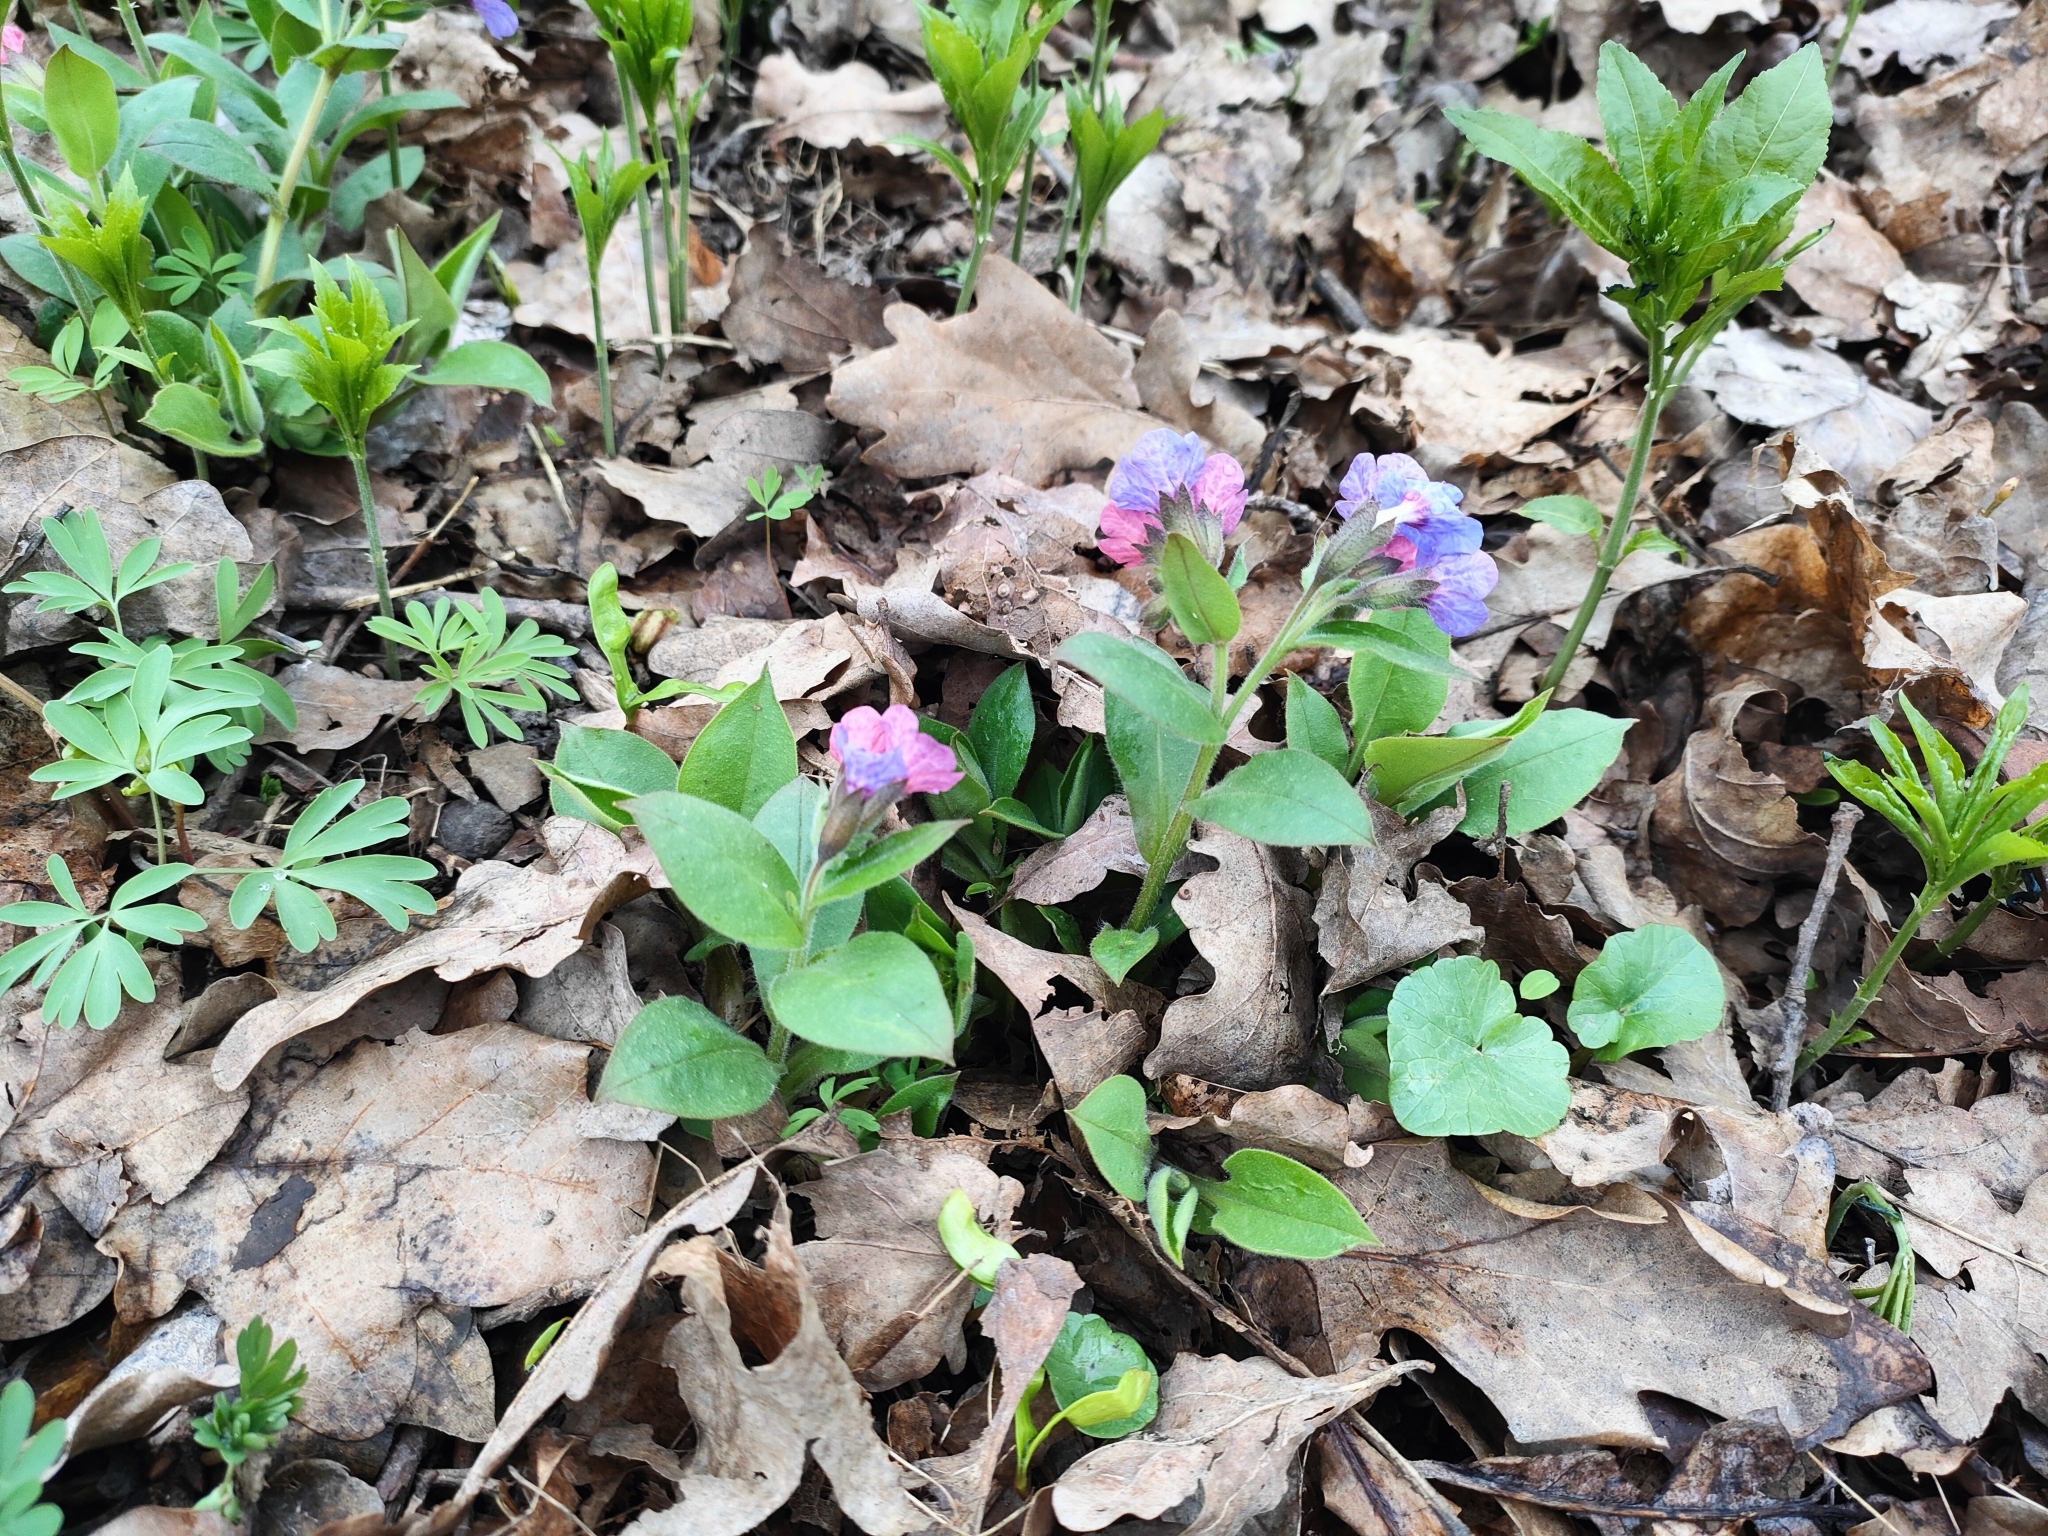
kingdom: Plantae
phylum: Tracheophyta
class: Magnoliopsida
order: Boraginales
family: Boraginaceae
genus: Pulmonaria
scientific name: Pulmonaria obscura
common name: Suffolk lungwort
